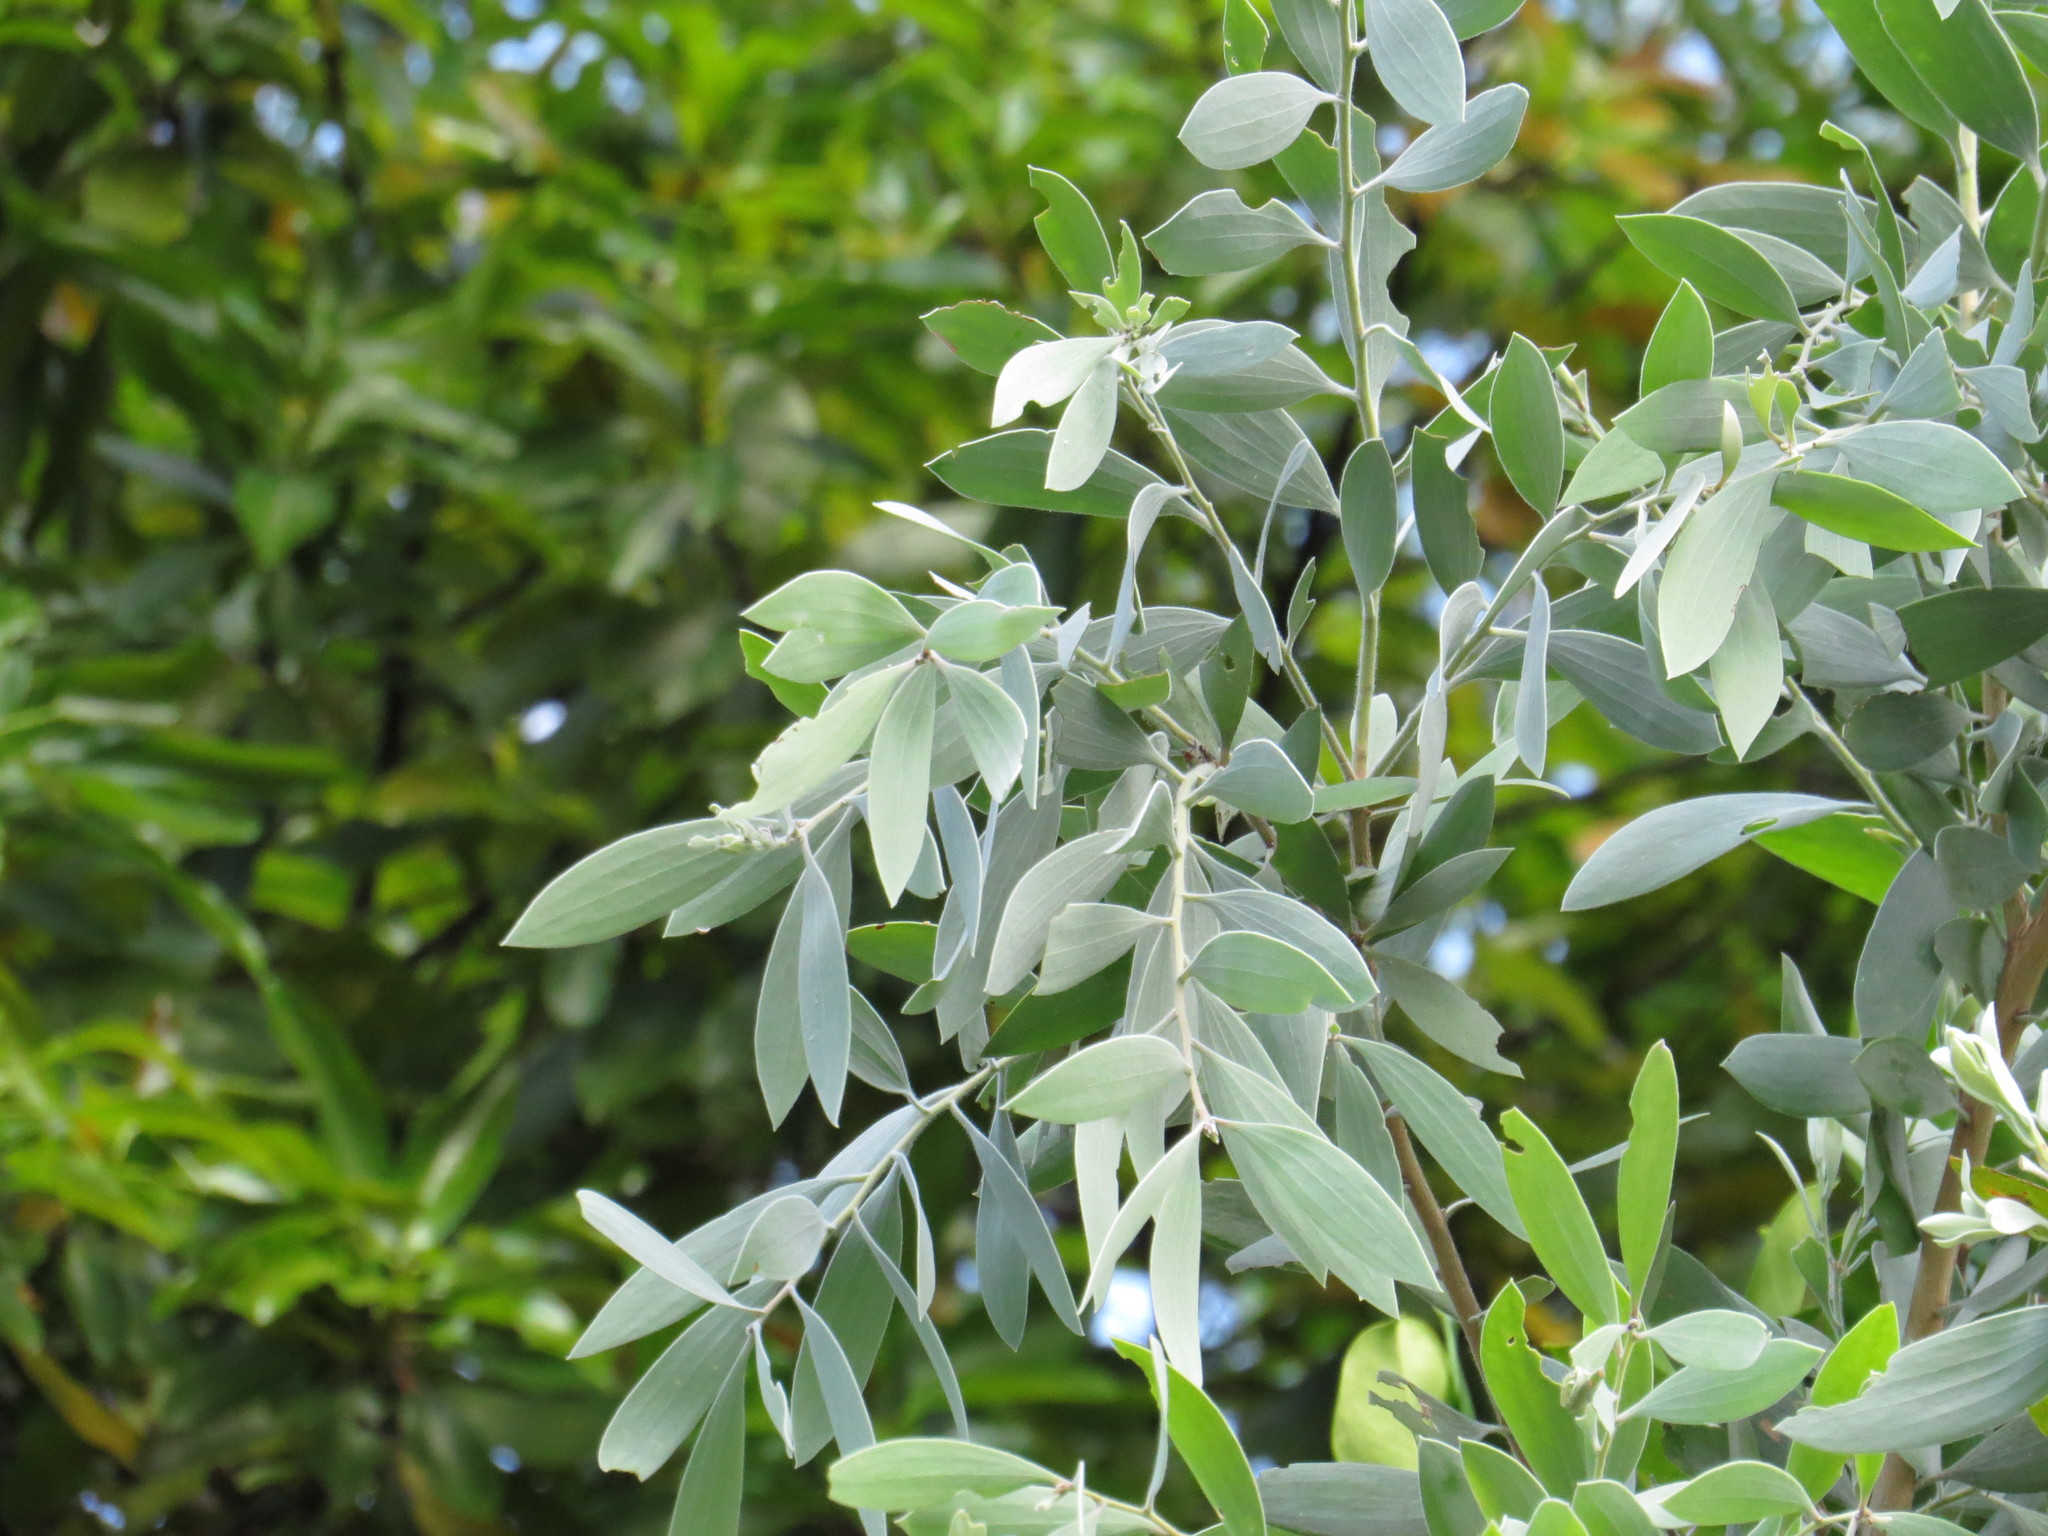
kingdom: Plantae
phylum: Tracheophyta
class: Magnoliopsida
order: Myrtales
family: Myrtaceae
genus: Melaleuca
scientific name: Melaleuca dealbata
